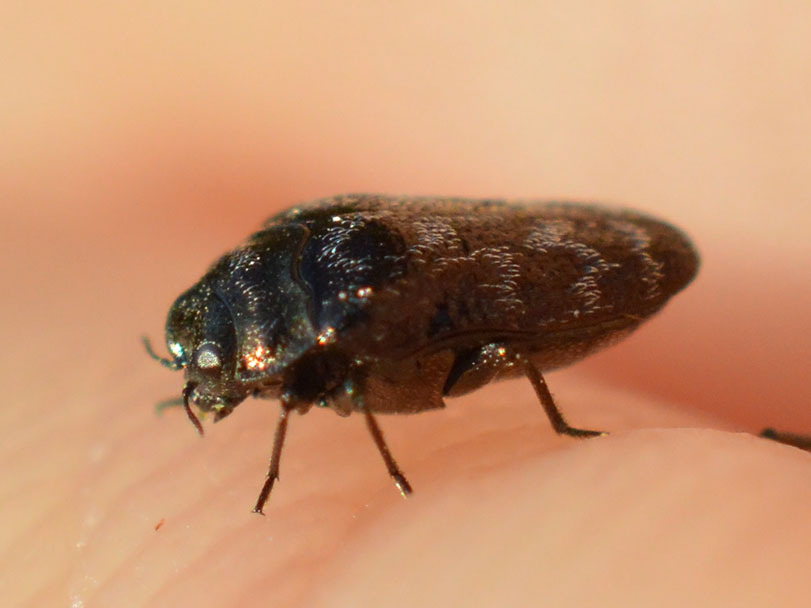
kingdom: Animalia
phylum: Arthropoda
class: Insecta
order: Coleoptera
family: Buprestidae
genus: Trachys
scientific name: Trachys minutus
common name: Metallic wood-boring beetle
